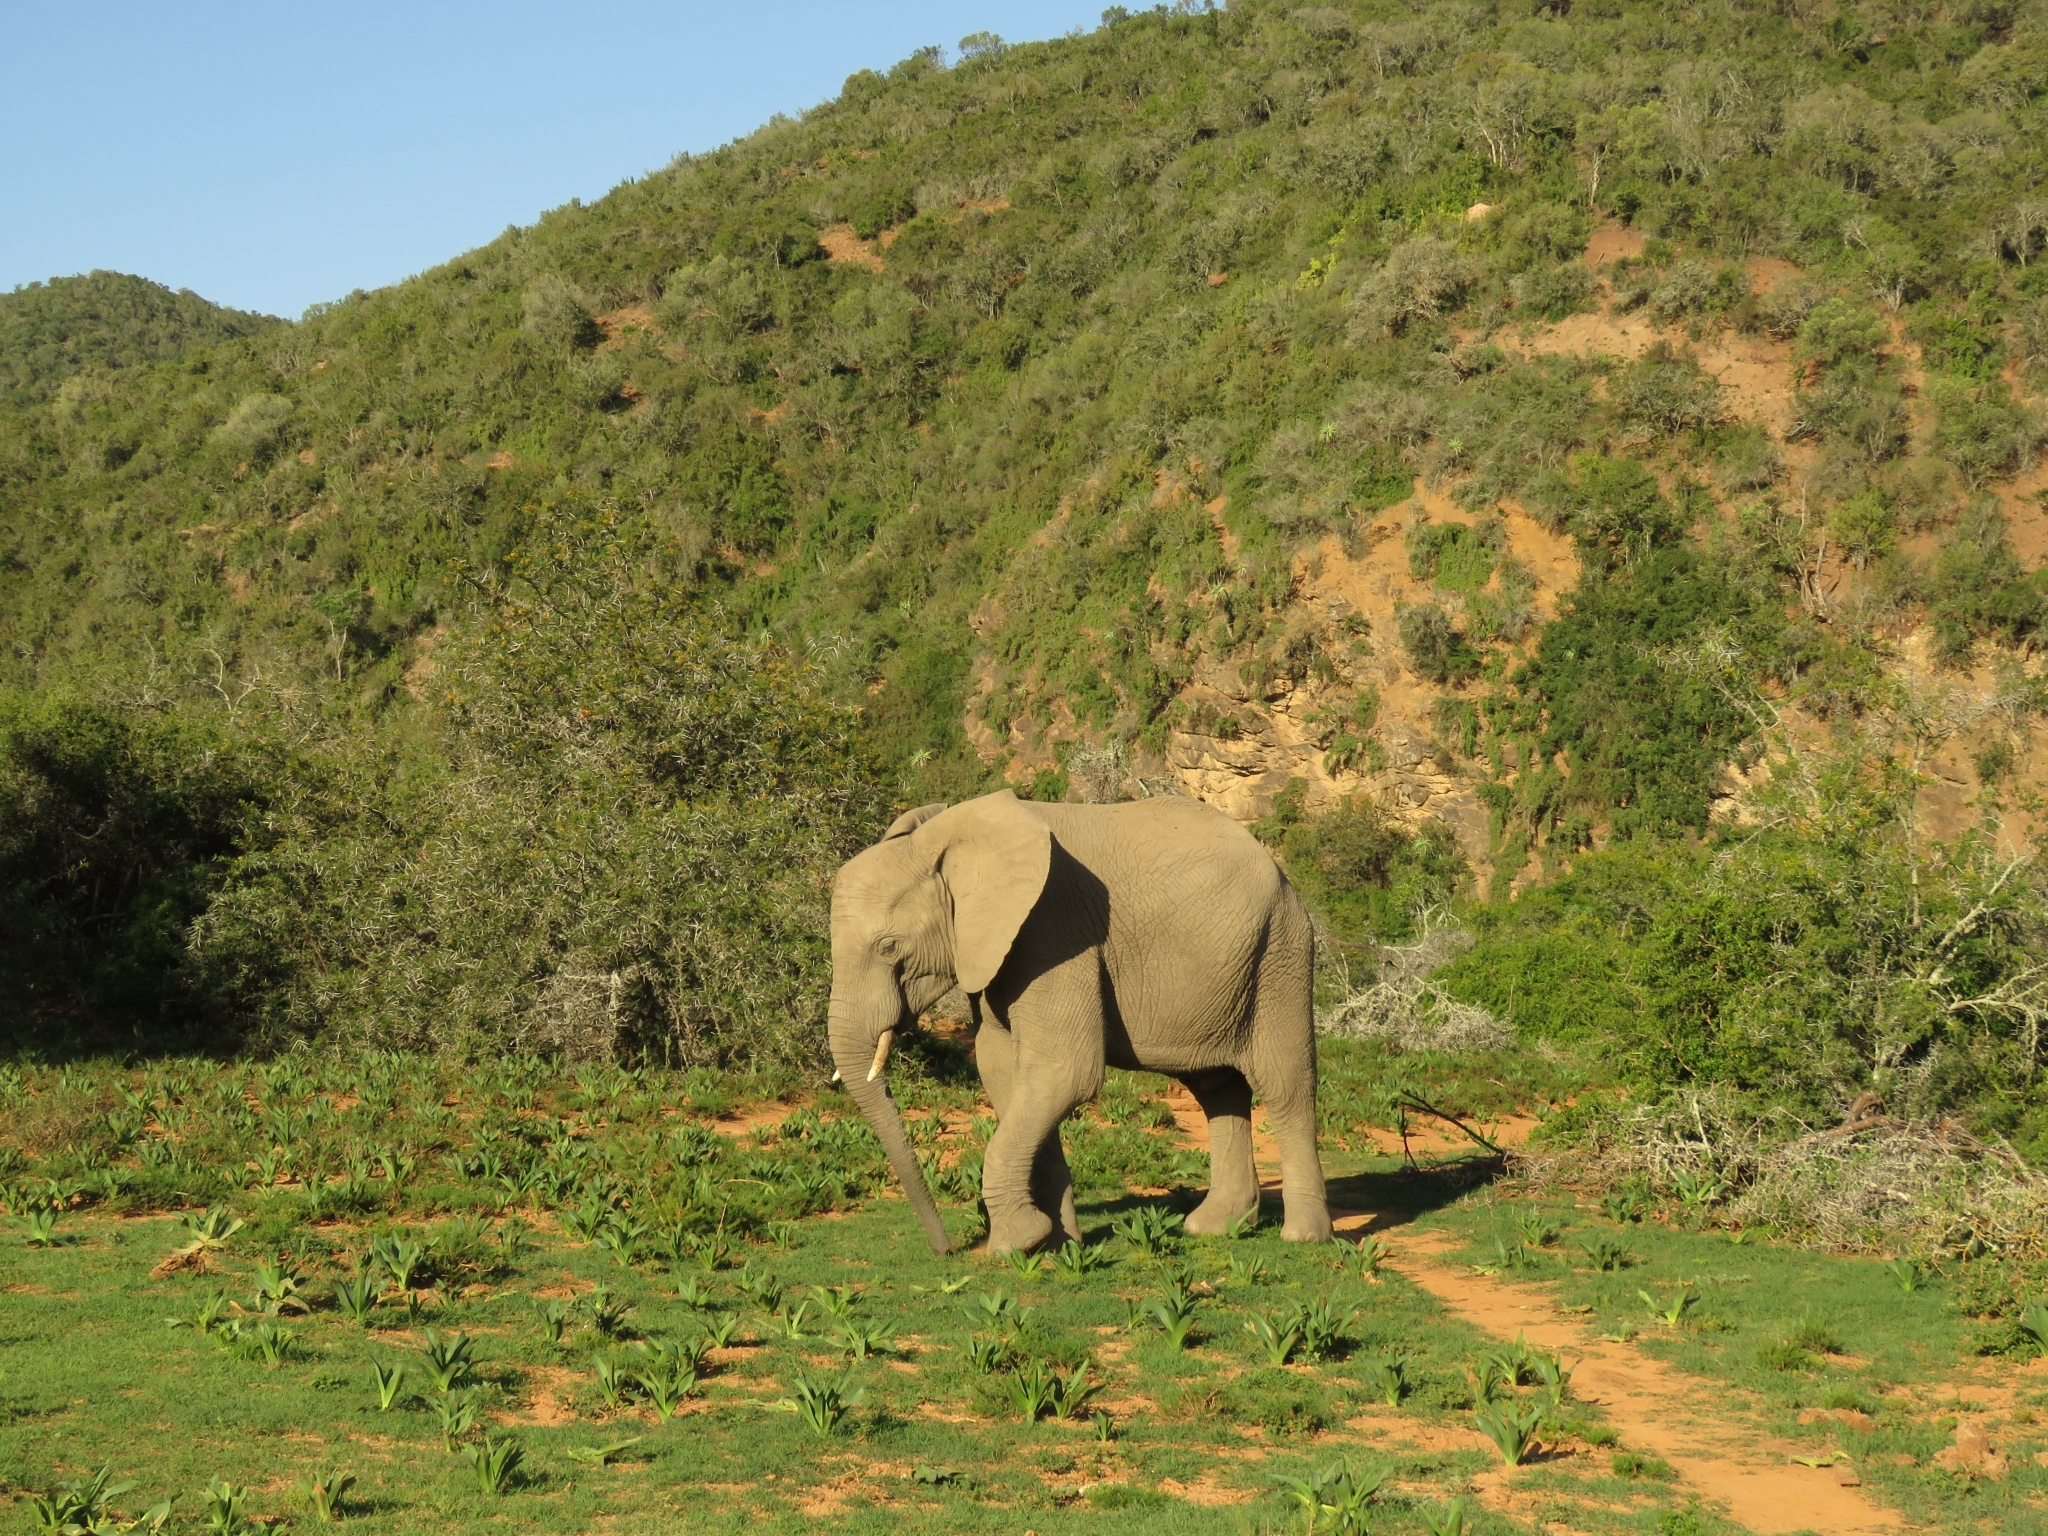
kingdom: Animalia
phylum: Chordata
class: Mammalia
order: Proboscidea
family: Elephantidae
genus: Loxodonta
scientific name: Loxodonta africana
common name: African elephant
